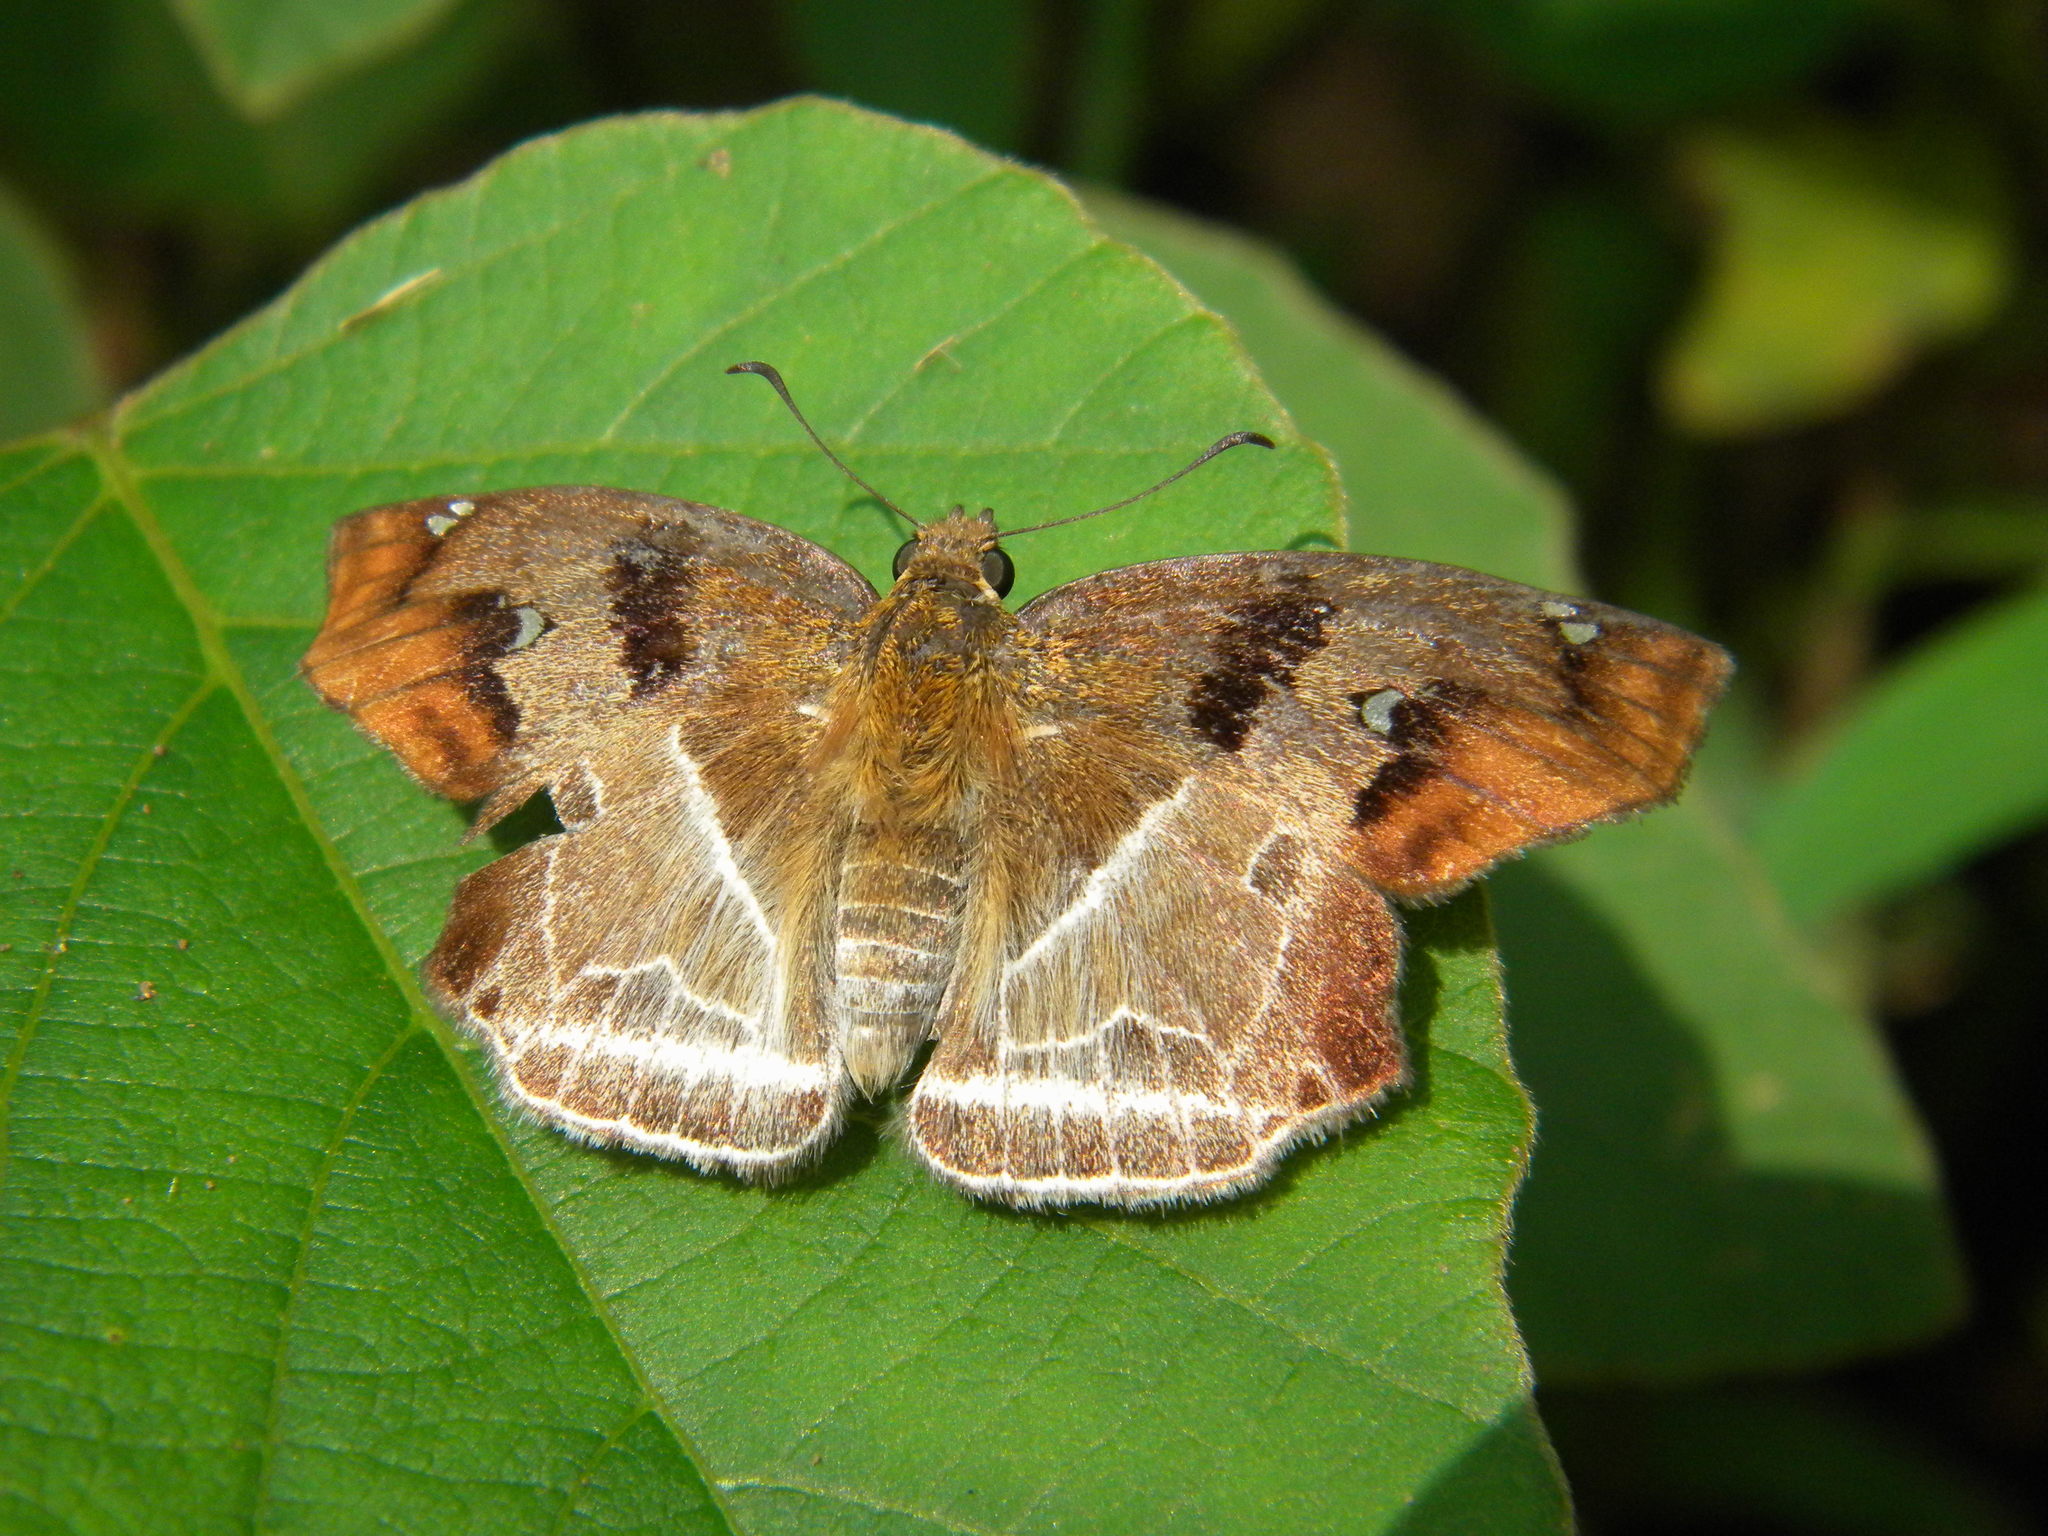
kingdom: Animalia
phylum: Arthropoda
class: Insecta
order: Lepidoptera
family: Hesperiidae
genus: Odontoptilum
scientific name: Odontoptilum angulata
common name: Chestnut banded angle
